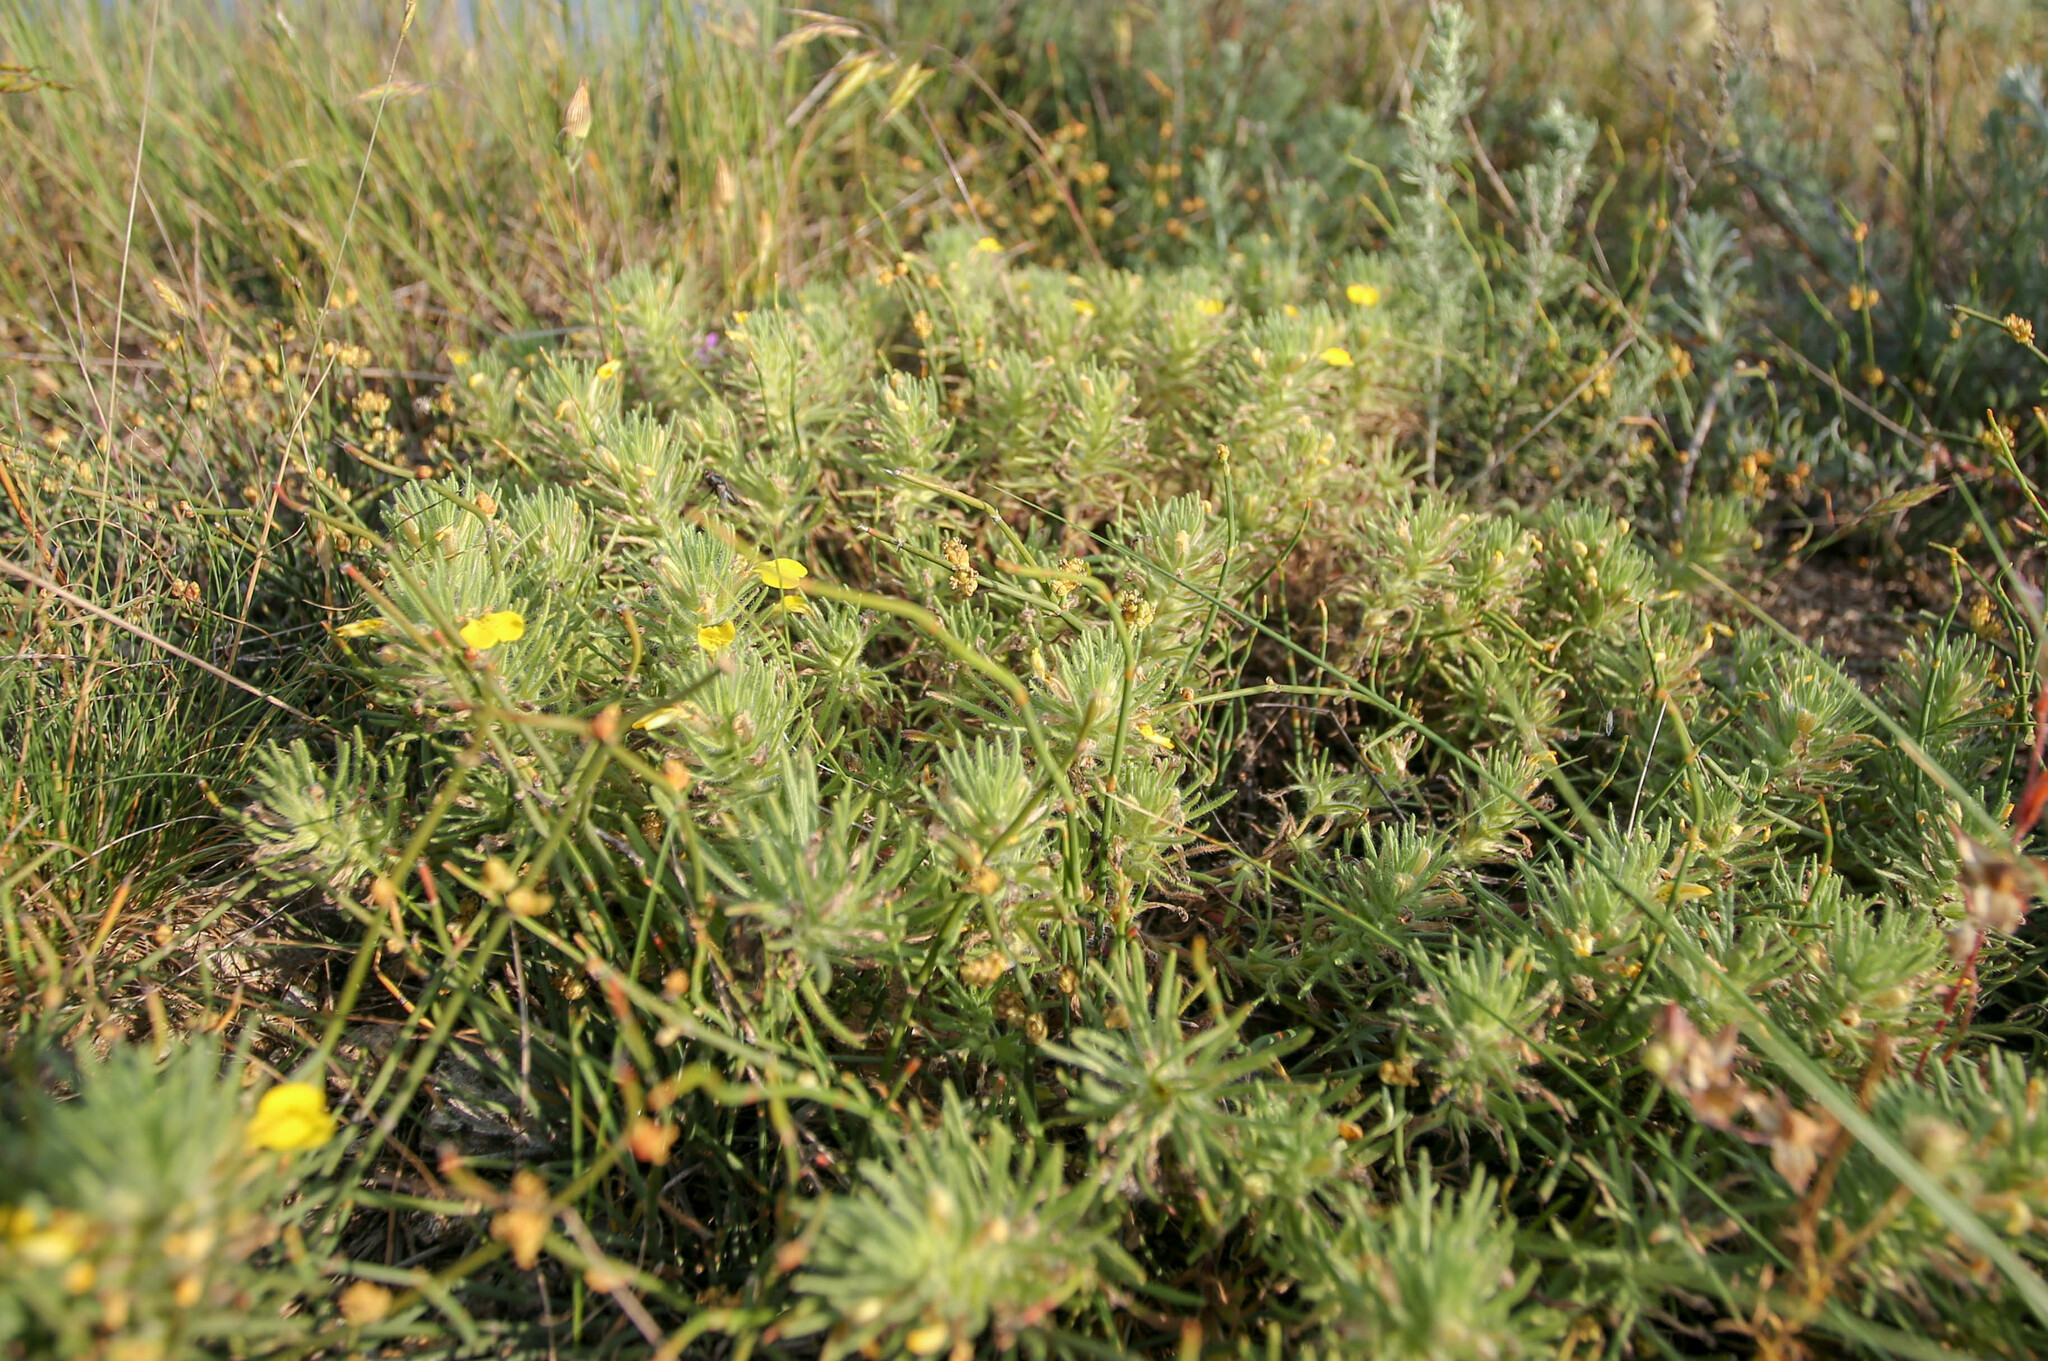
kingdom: Plantae
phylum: Tracheophyta
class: Magnoliopsida
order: Lamiales
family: Lamiaceae
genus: Ajuga
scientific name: Ajuga chamaepitys
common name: Ground-pine
